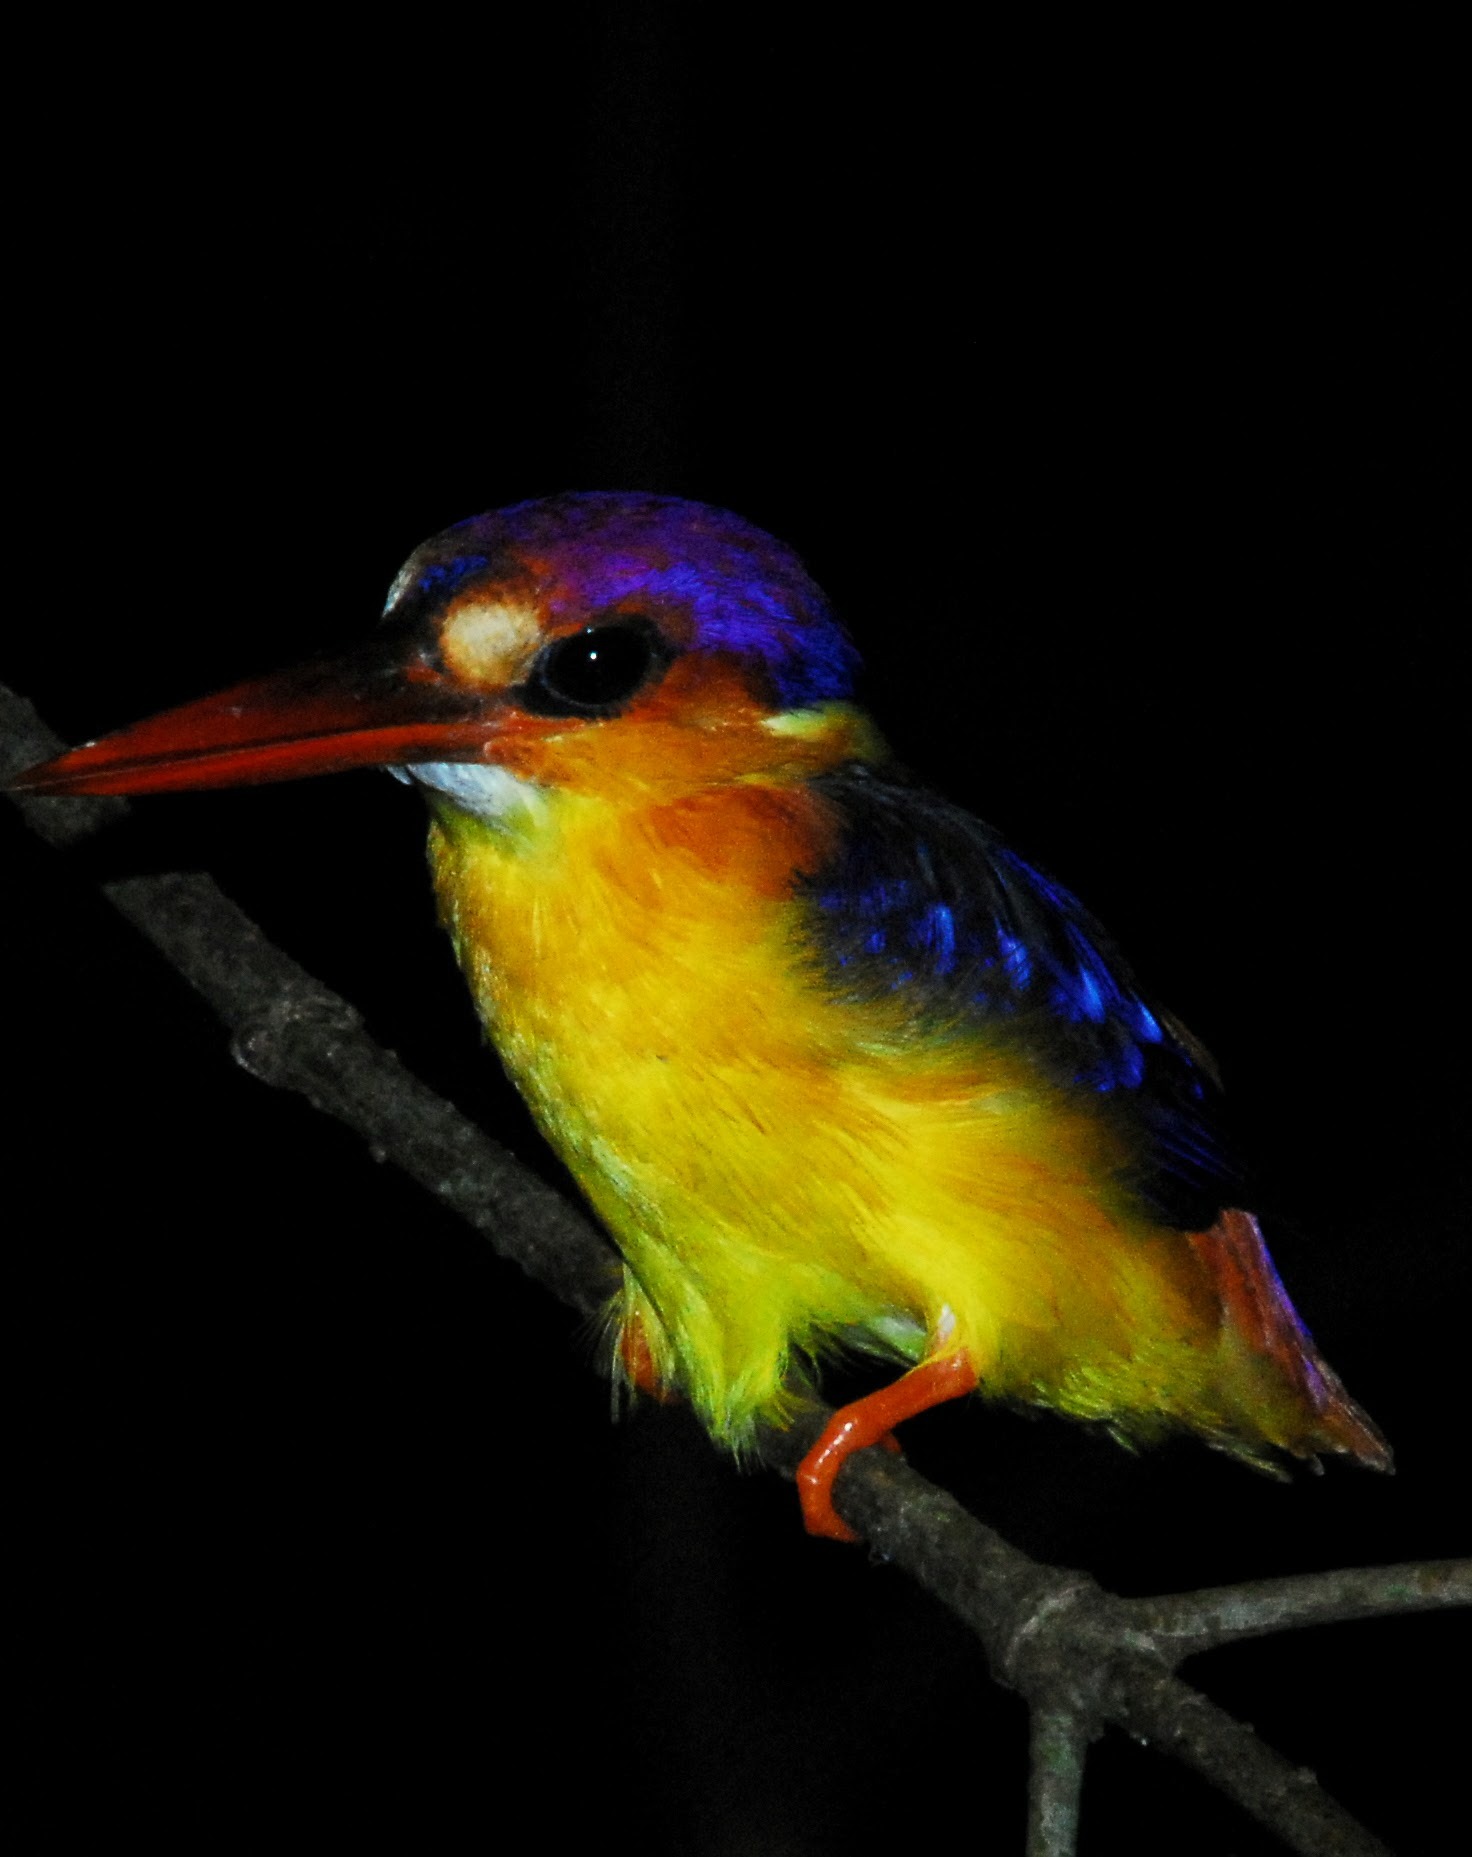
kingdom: Animalia
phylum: Chordata
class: Aves
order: Coraciiformes
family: Alcedinidae
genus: Ceyx
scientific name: Ceyx erithaca
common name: Oriental dwarf kingfisher
